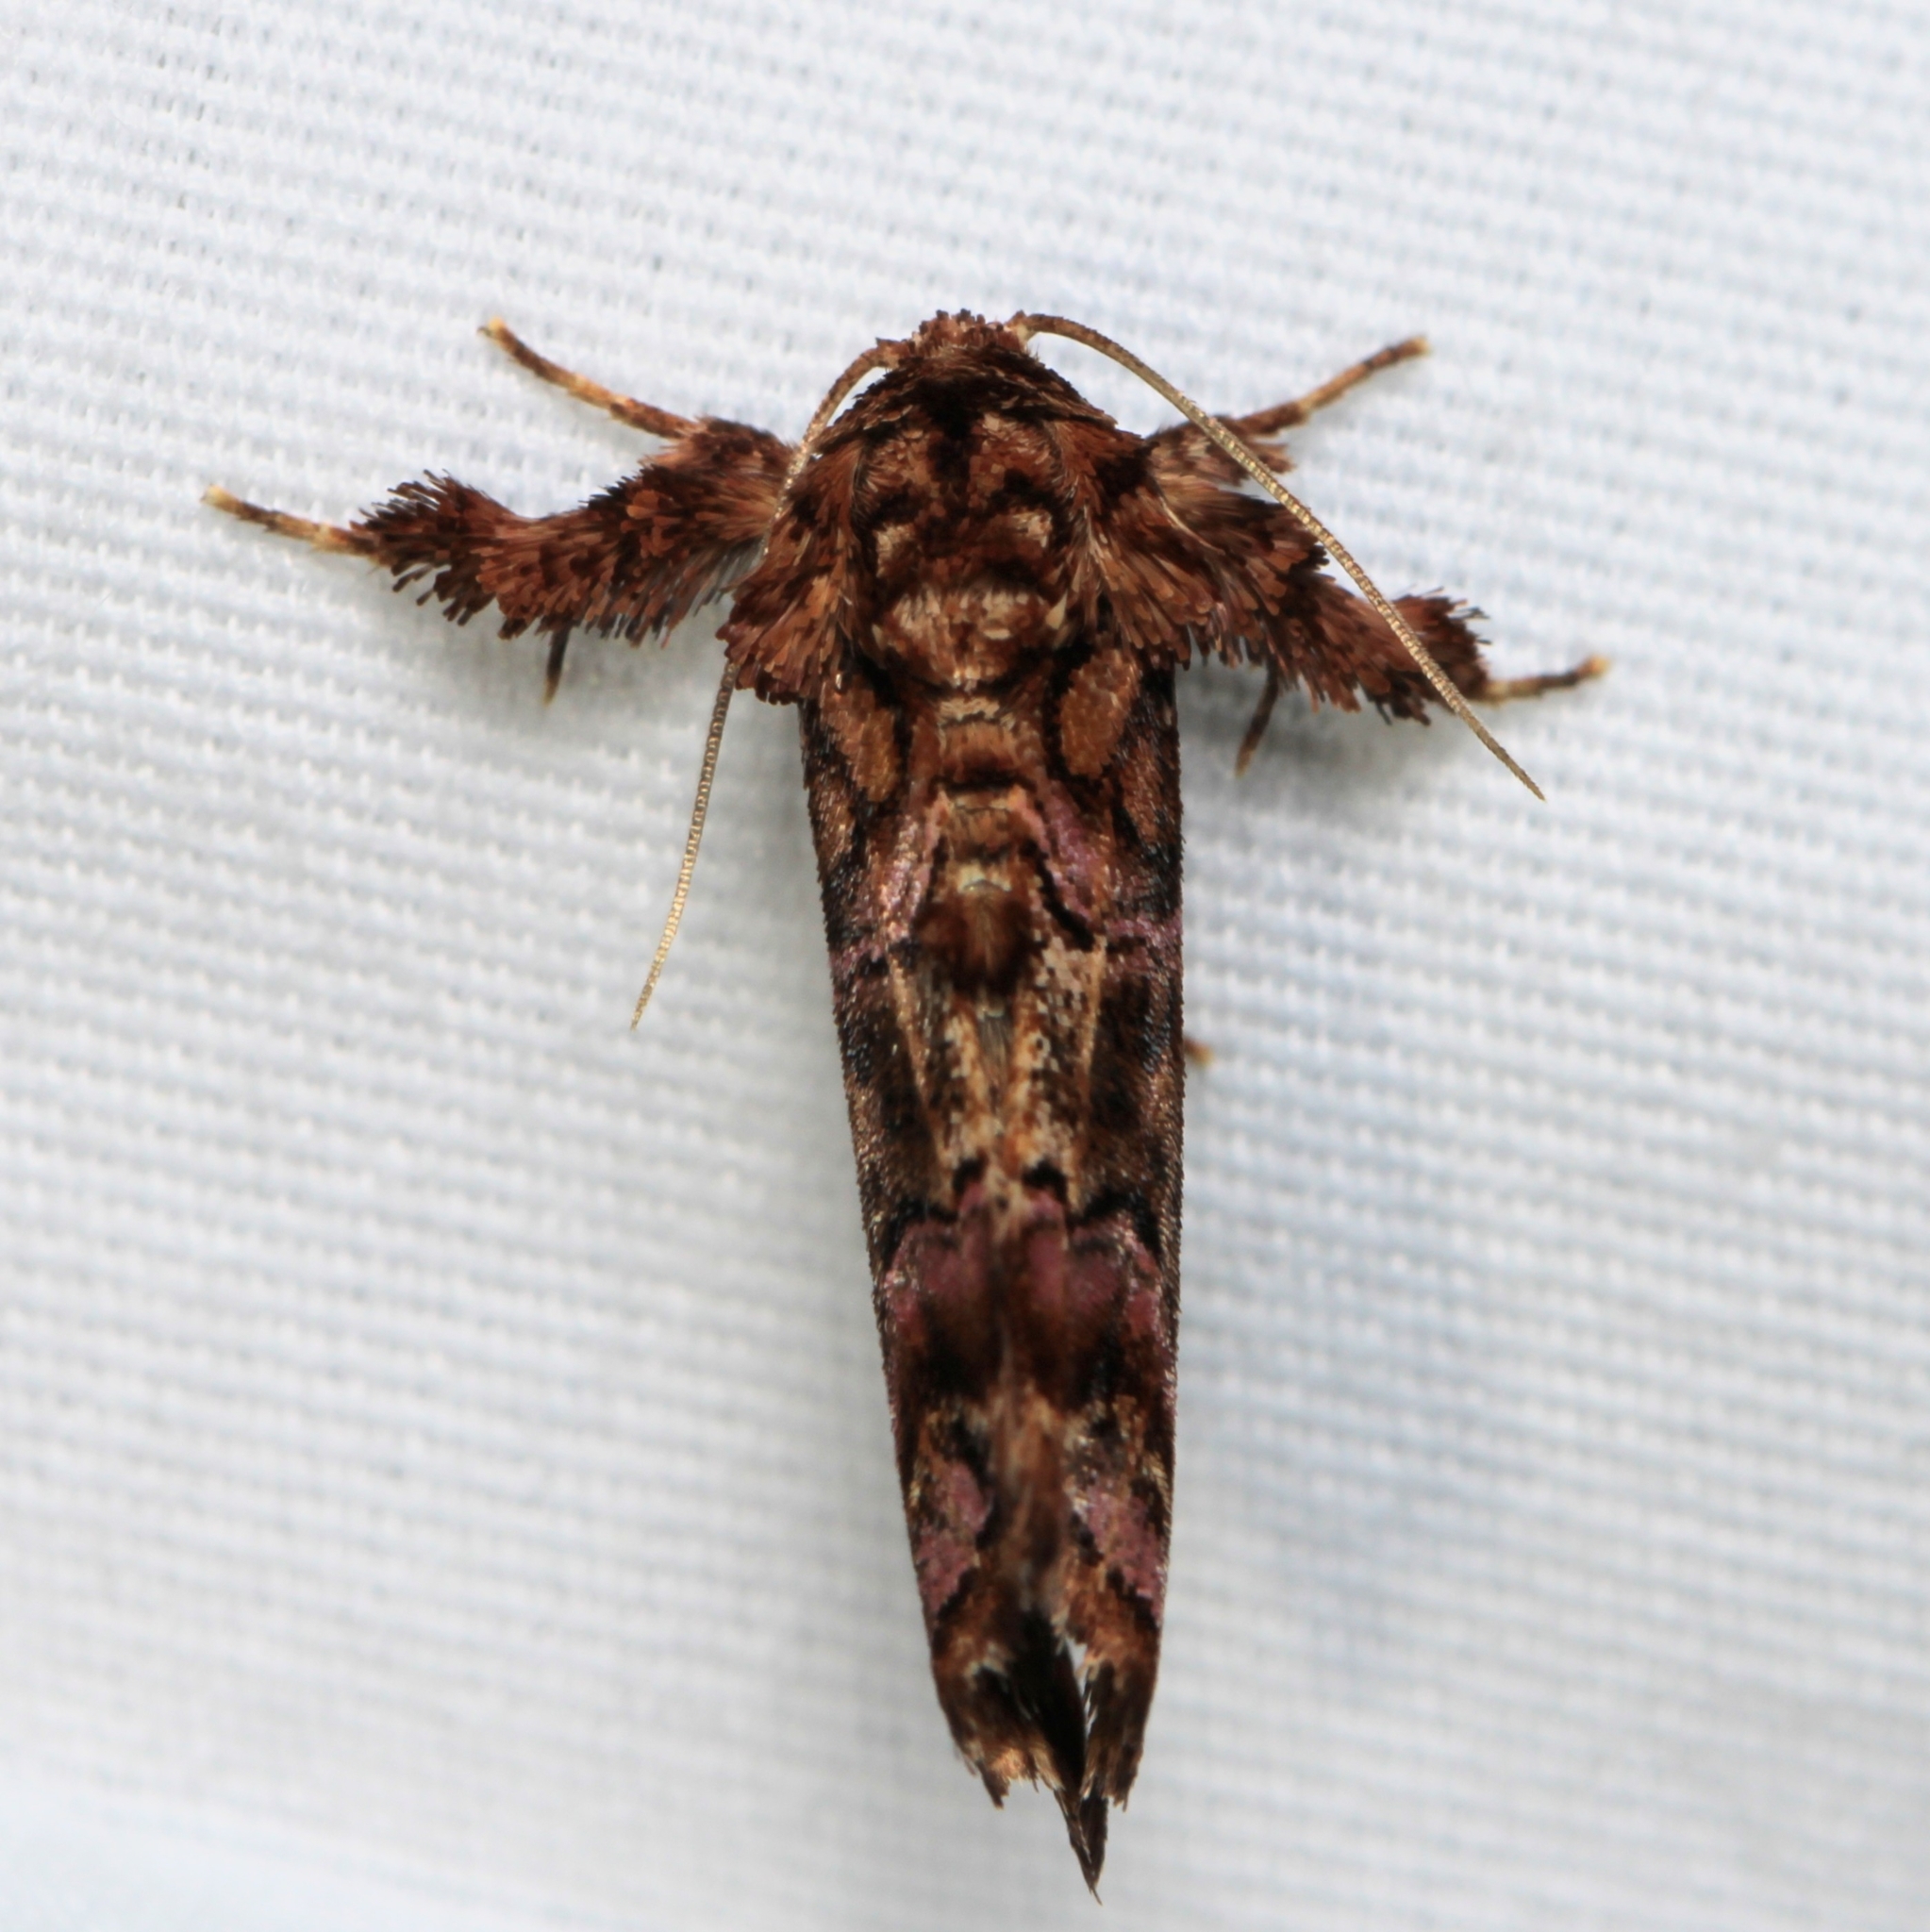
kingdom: Animalia
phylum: Arthropoda
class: Insecta
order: Lepidoptera
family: Noctuidae
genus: Callopistria
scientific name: Callopistria mollissima
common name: Pink-shaded fern moth
